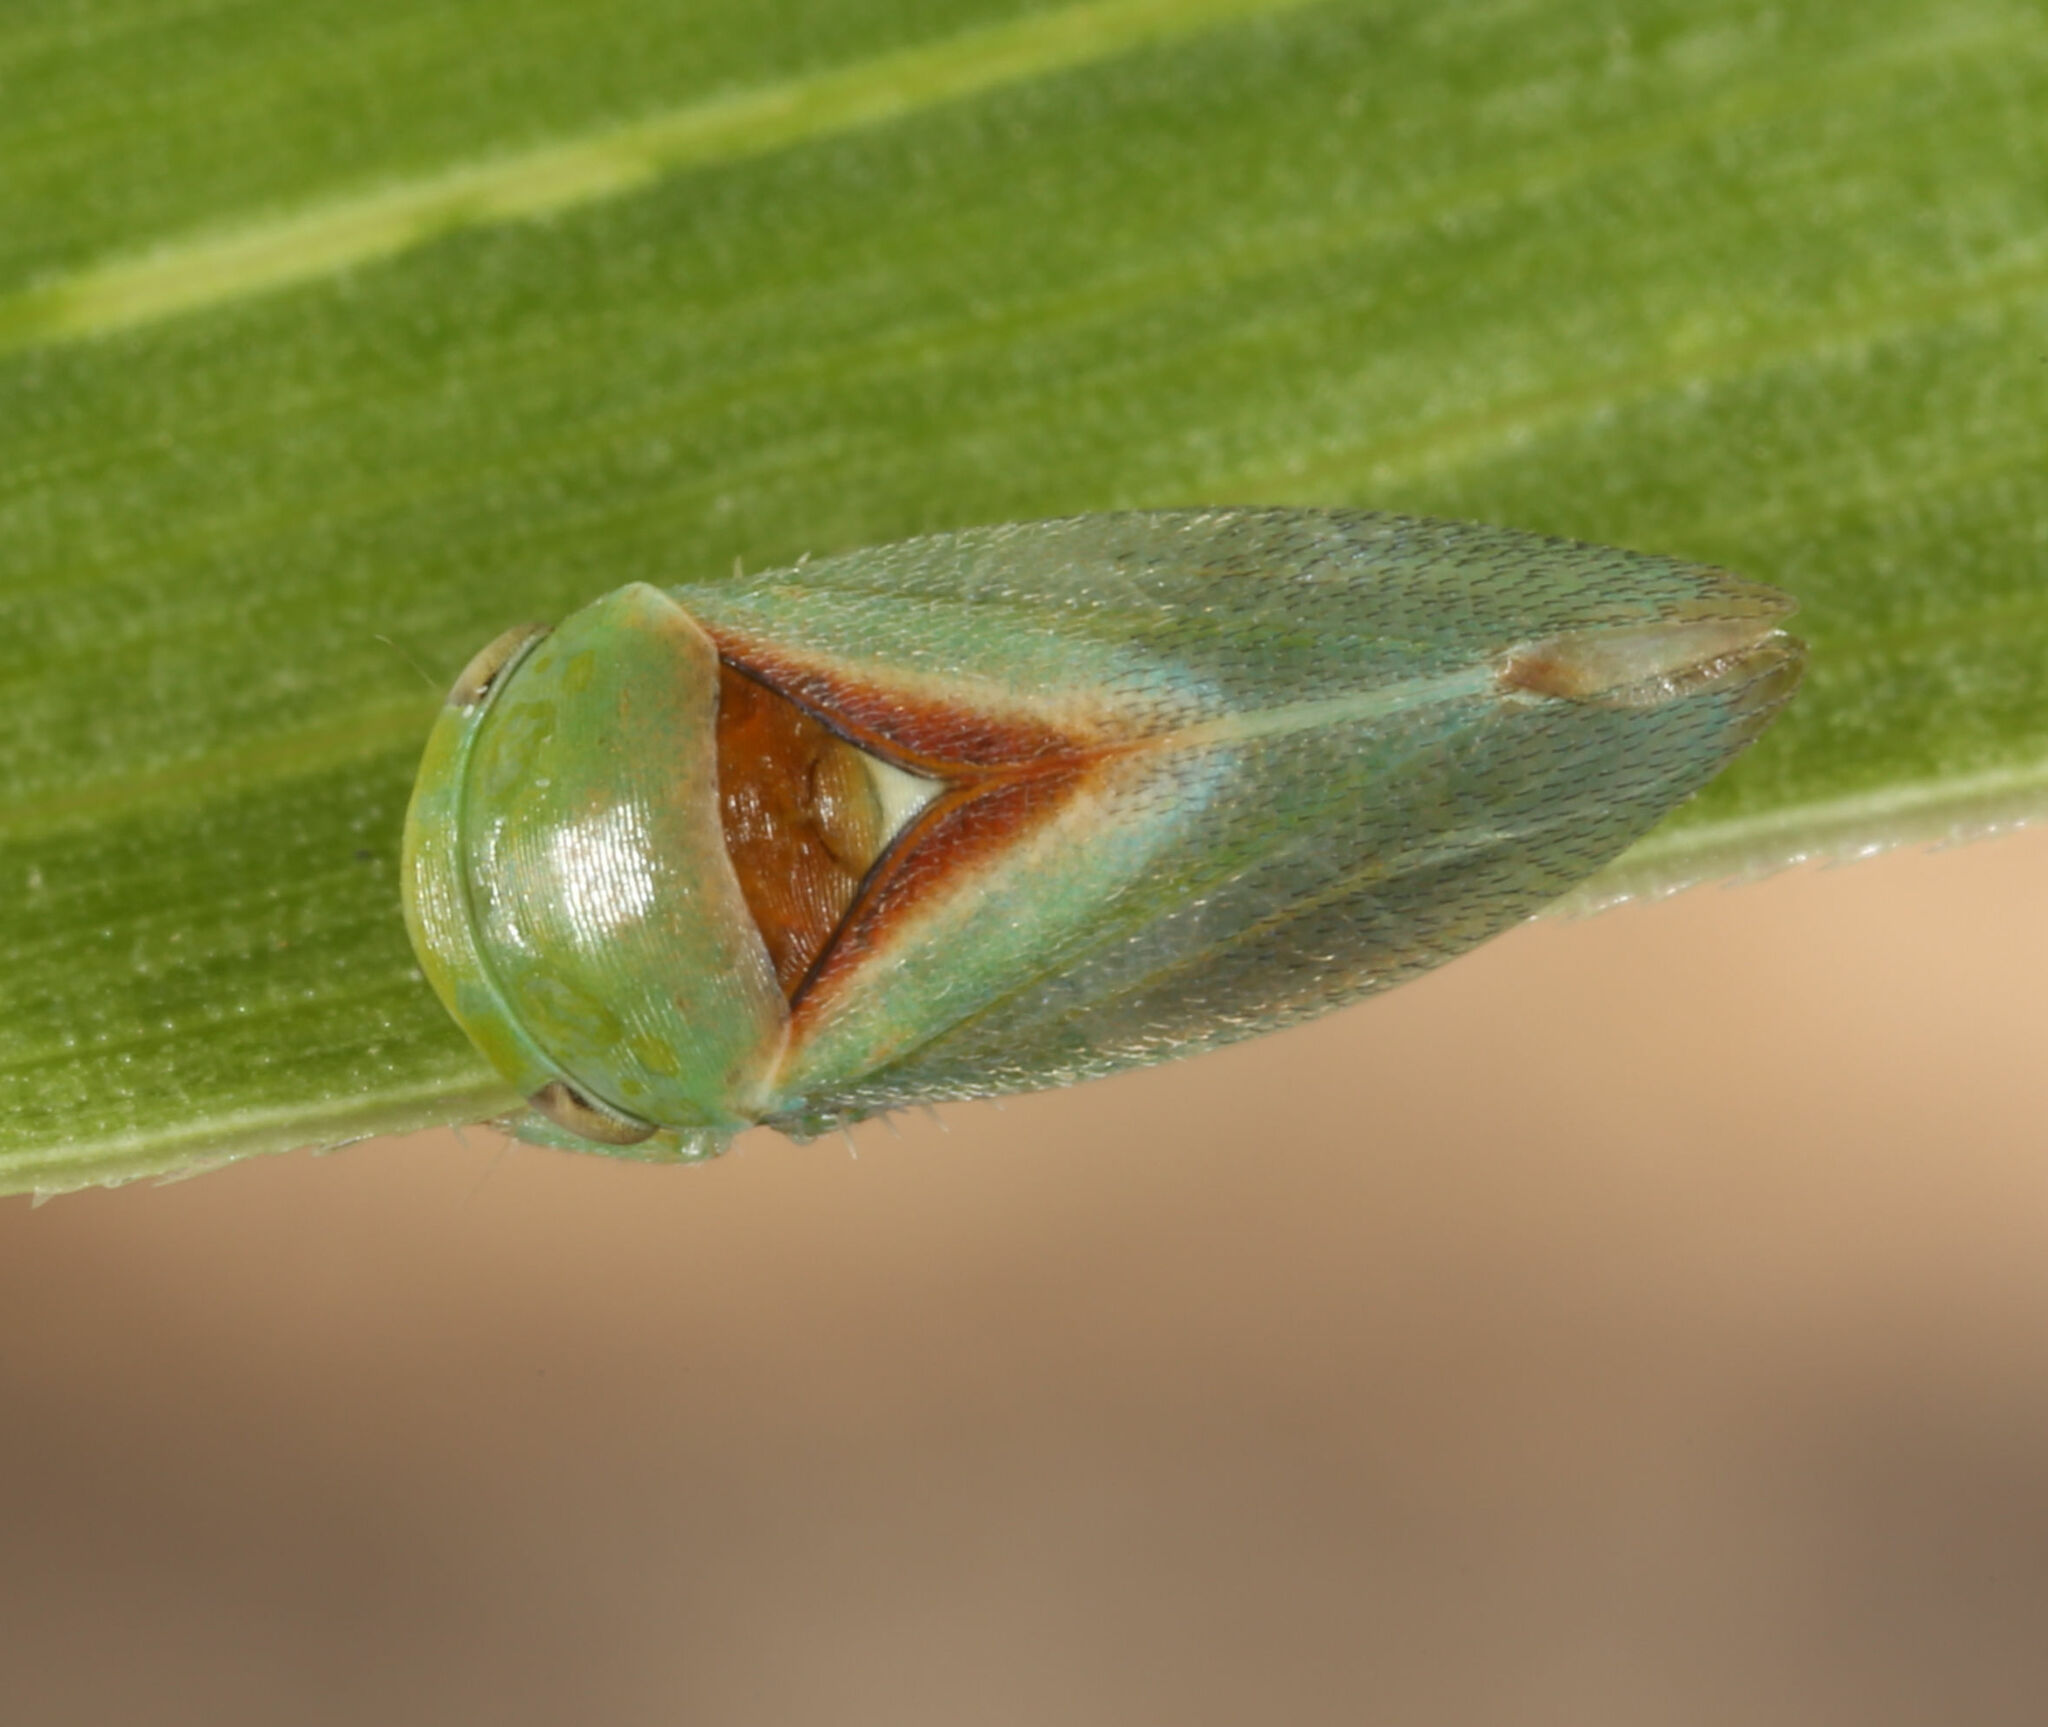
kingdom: Animalia
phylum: Arthropoda
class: Insecta
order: Hemiptera
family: Cicadellidae
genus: Momoria
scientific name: Momoria bisignata
